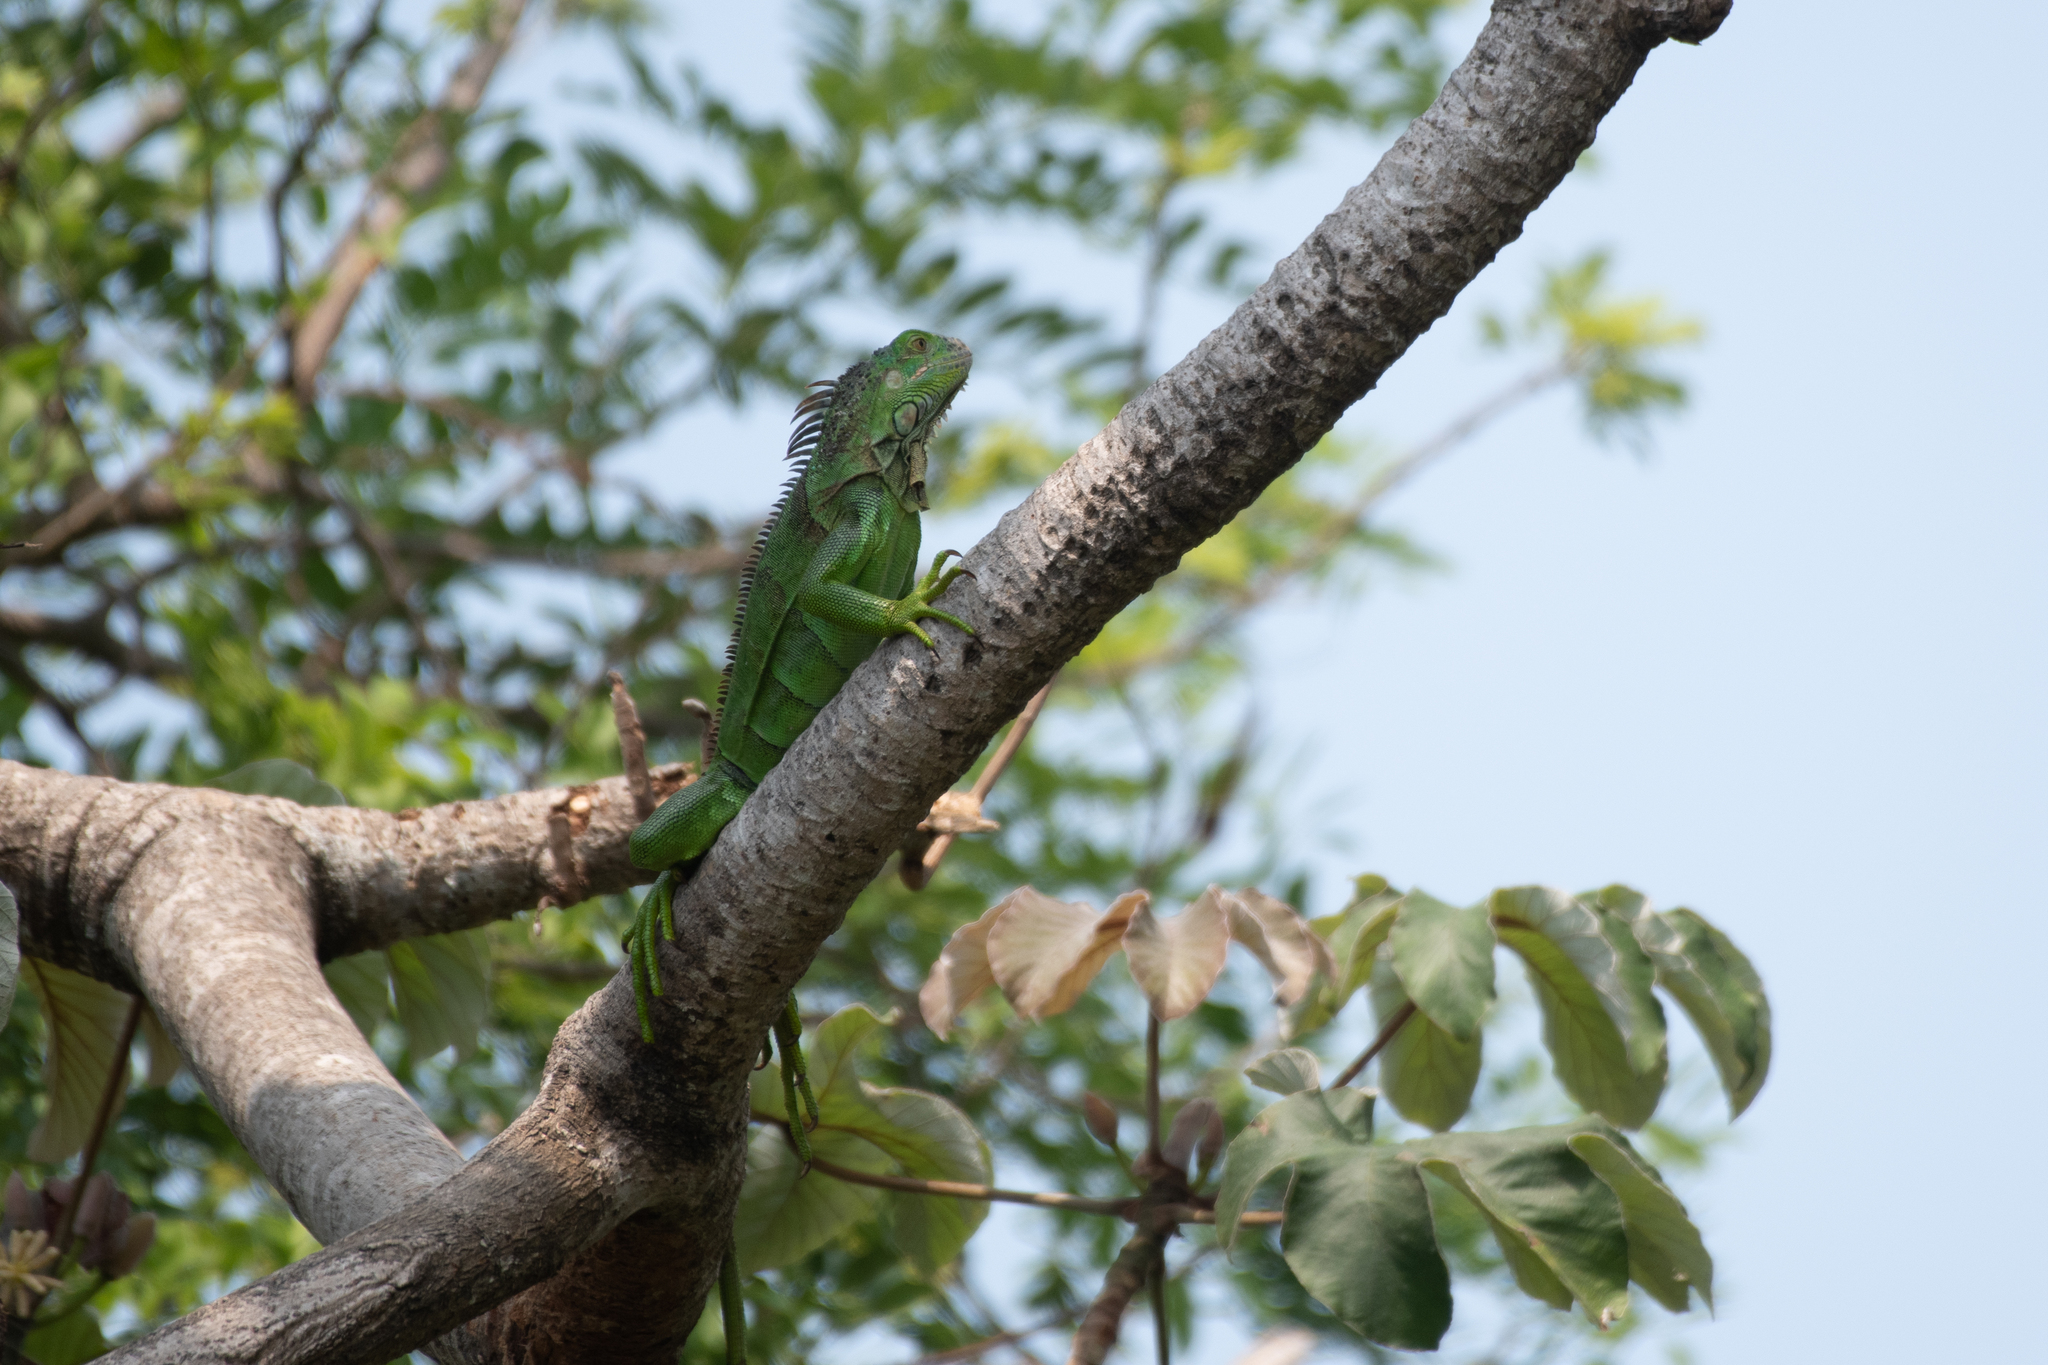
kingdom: Animalia
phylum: Chordata
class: Squamata
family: Iguanidae
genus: Iguana
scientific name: Iguana iguana
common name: Green iguana
